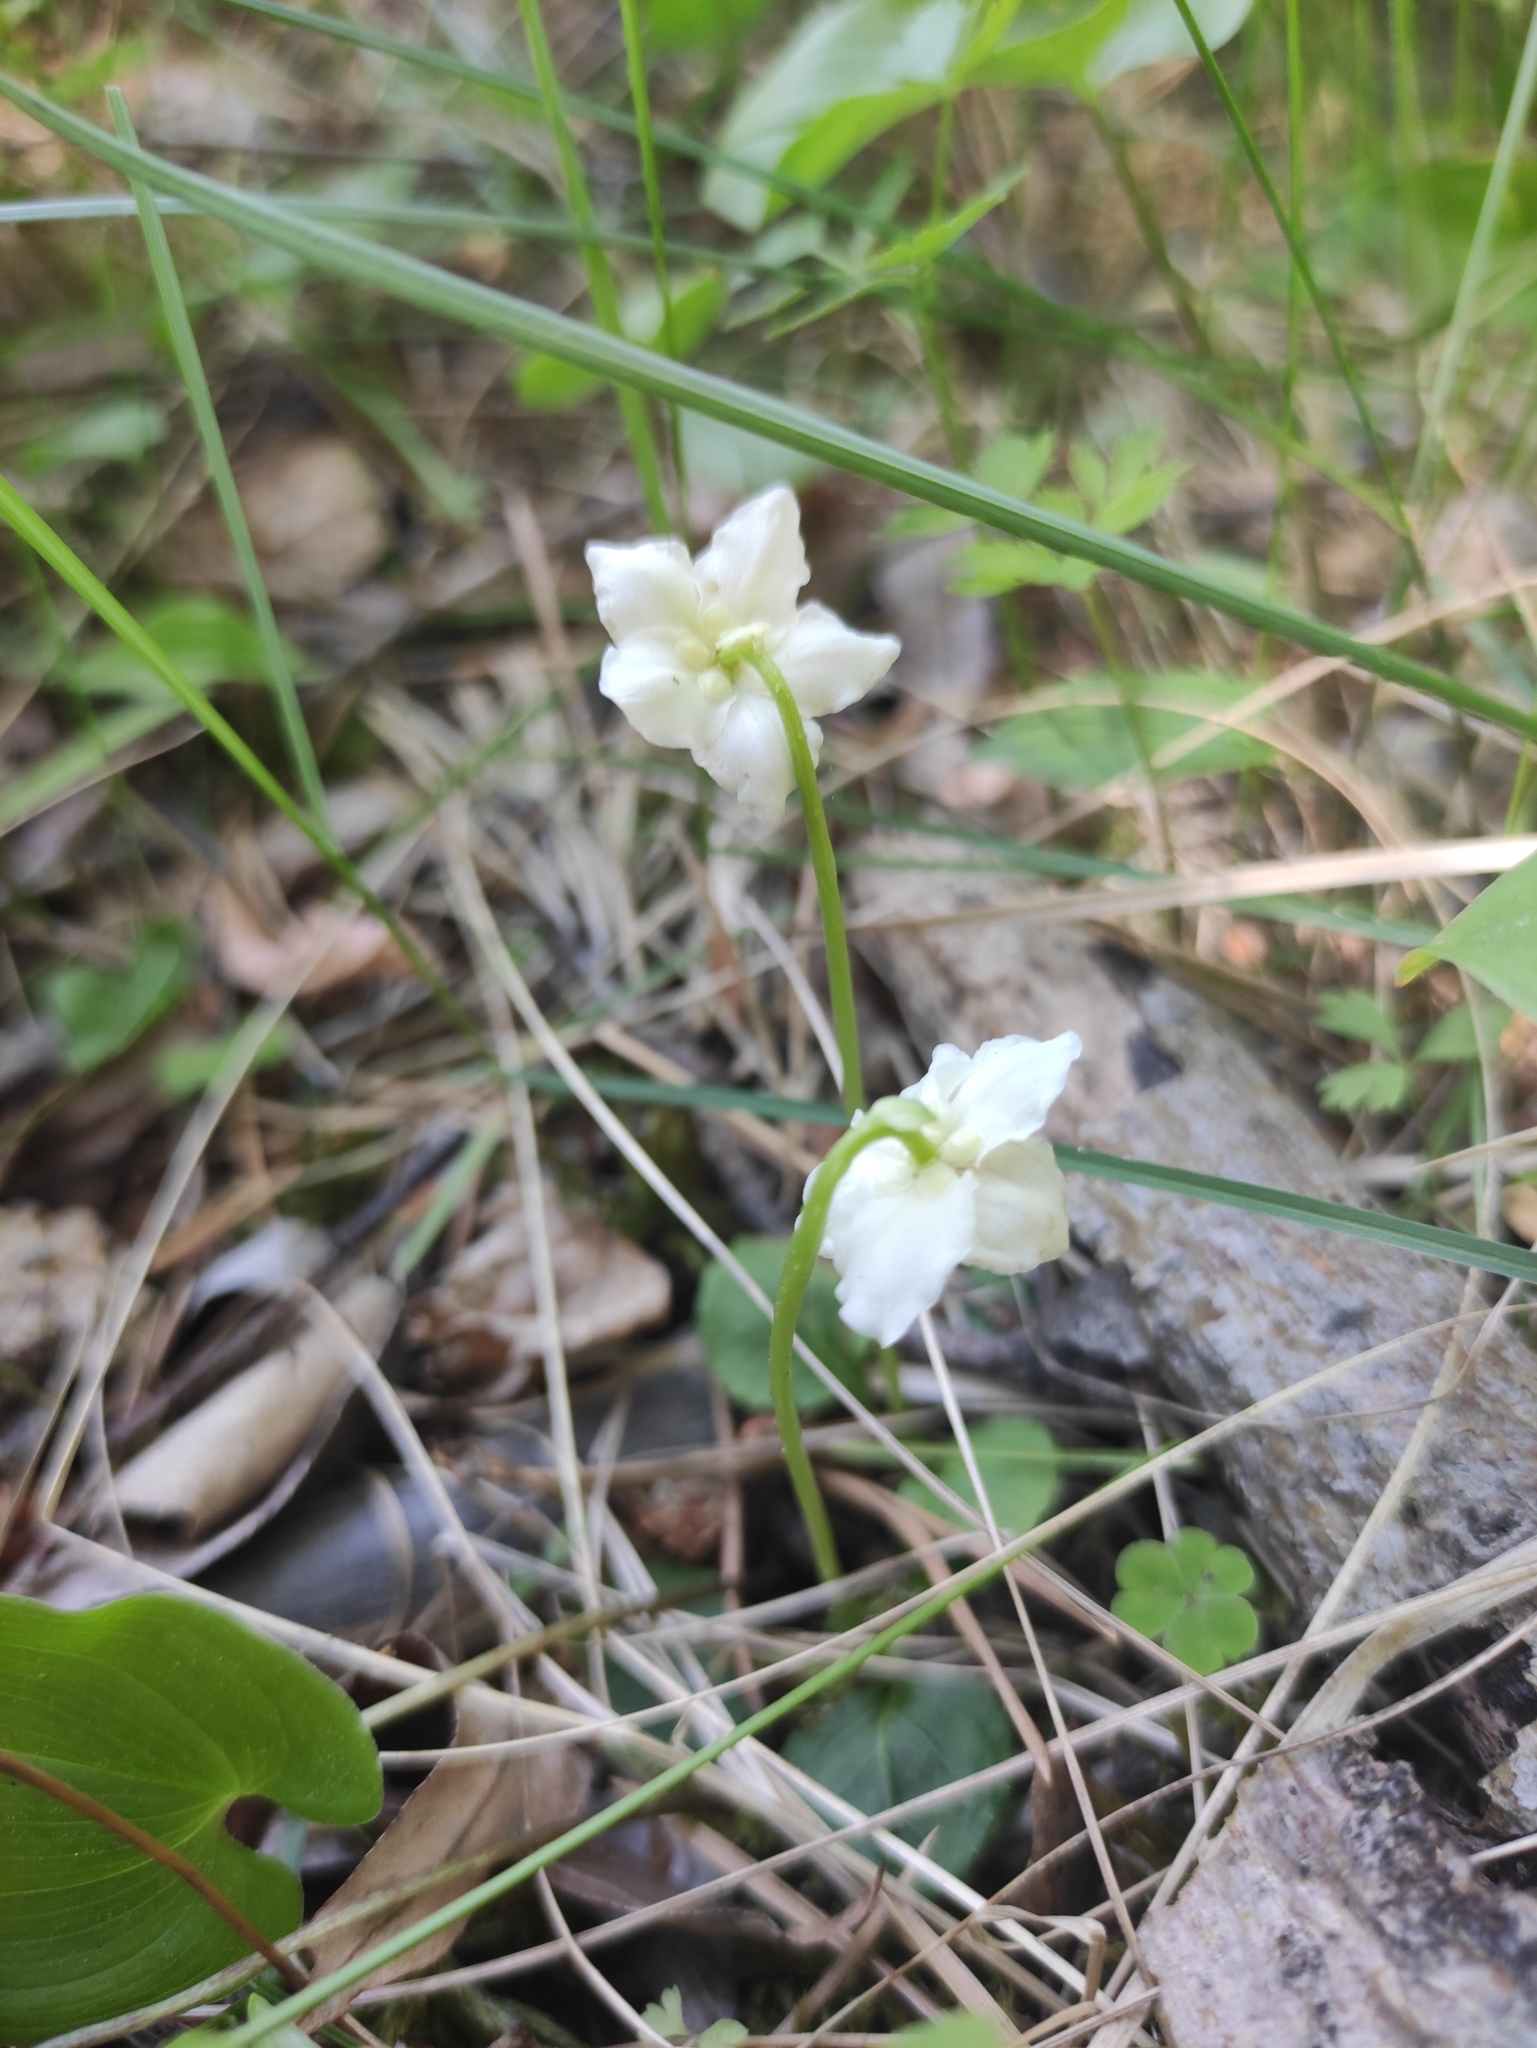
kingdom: Plantae
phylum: Tracheophyta
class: Magnoliopsida
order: Ericales
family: Ericaceae
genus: Moneses
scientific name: Moneses uniflora
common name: One-flowered wintergreen
